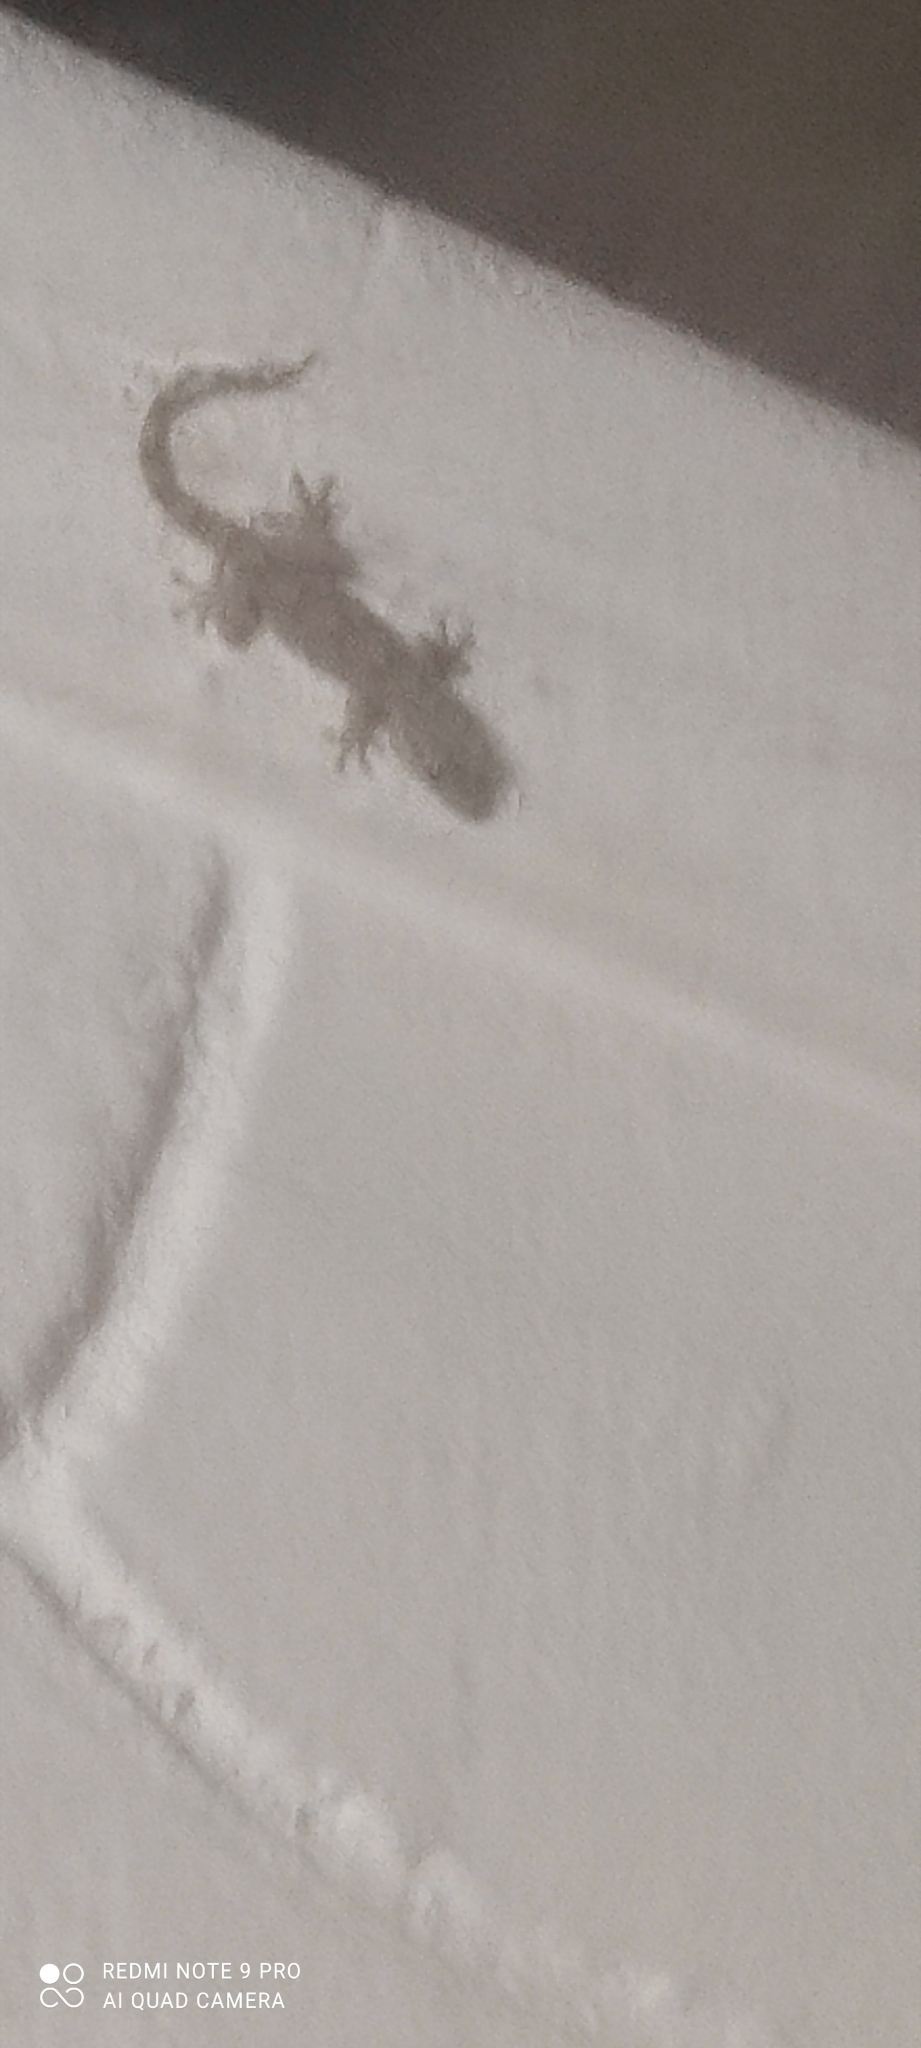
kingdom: Animalia
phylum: Chordata
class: Squamata
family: Phyllodactylidae
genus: Tarentola
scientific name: Tarentola mauritanica
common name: Moorish gecko
